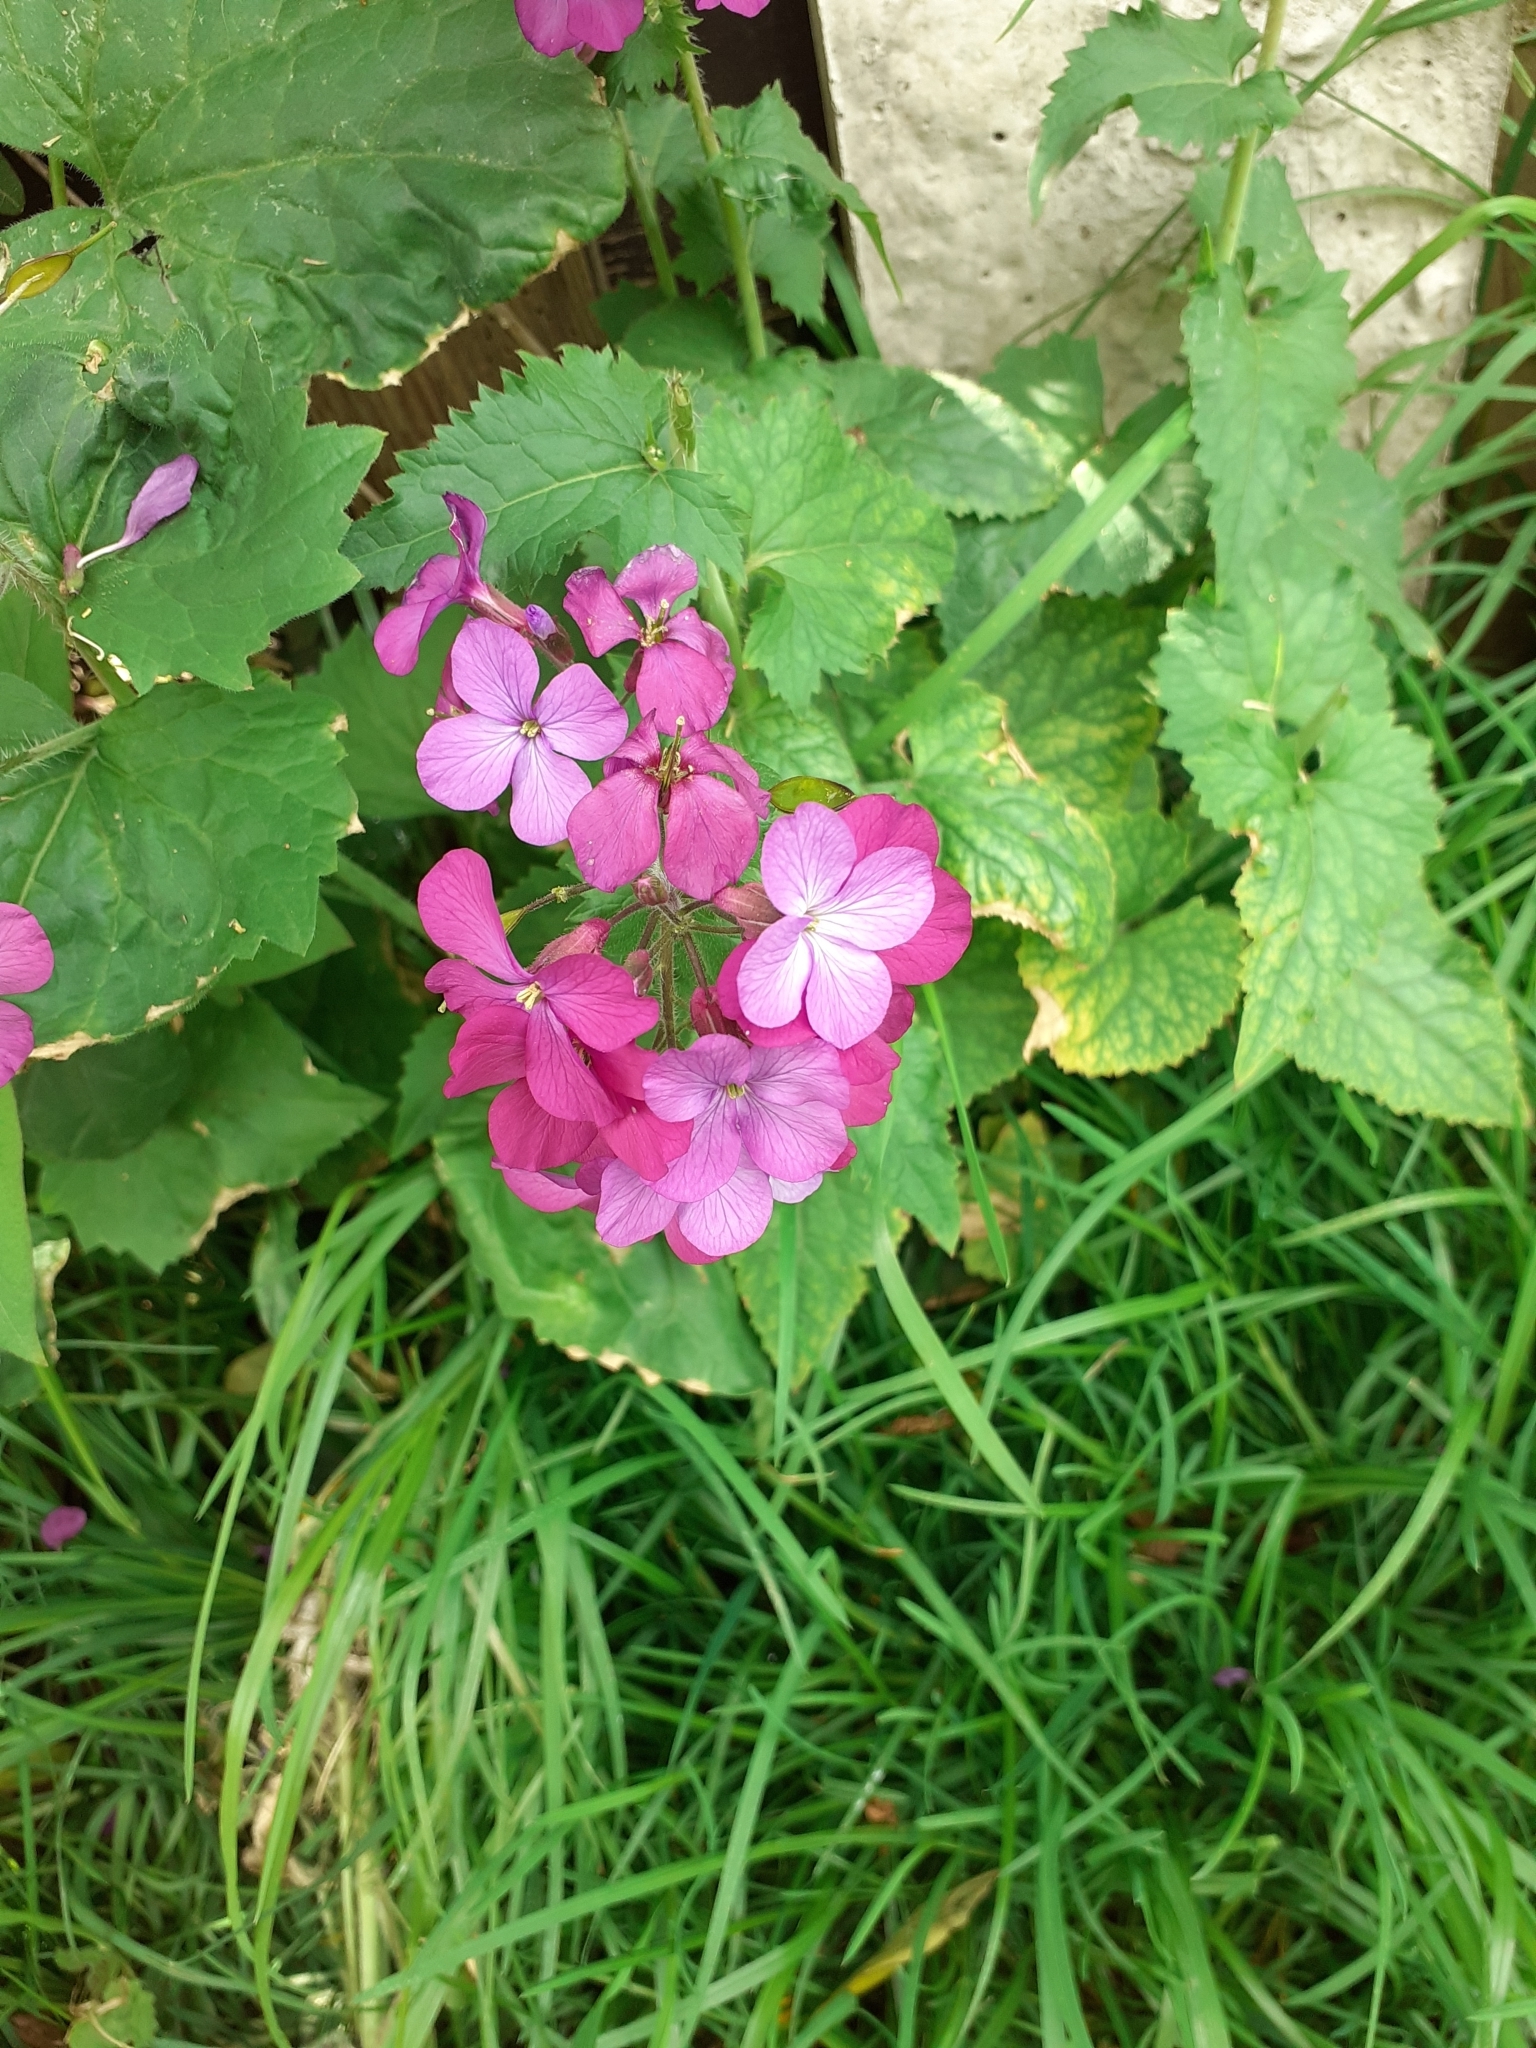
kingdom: Plantae
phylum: Tracheophyta
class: Magnoliopsida
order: Brassicales
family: Brassicaceae
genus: Lunaria
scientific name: Lunaria annua
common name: Honesty
